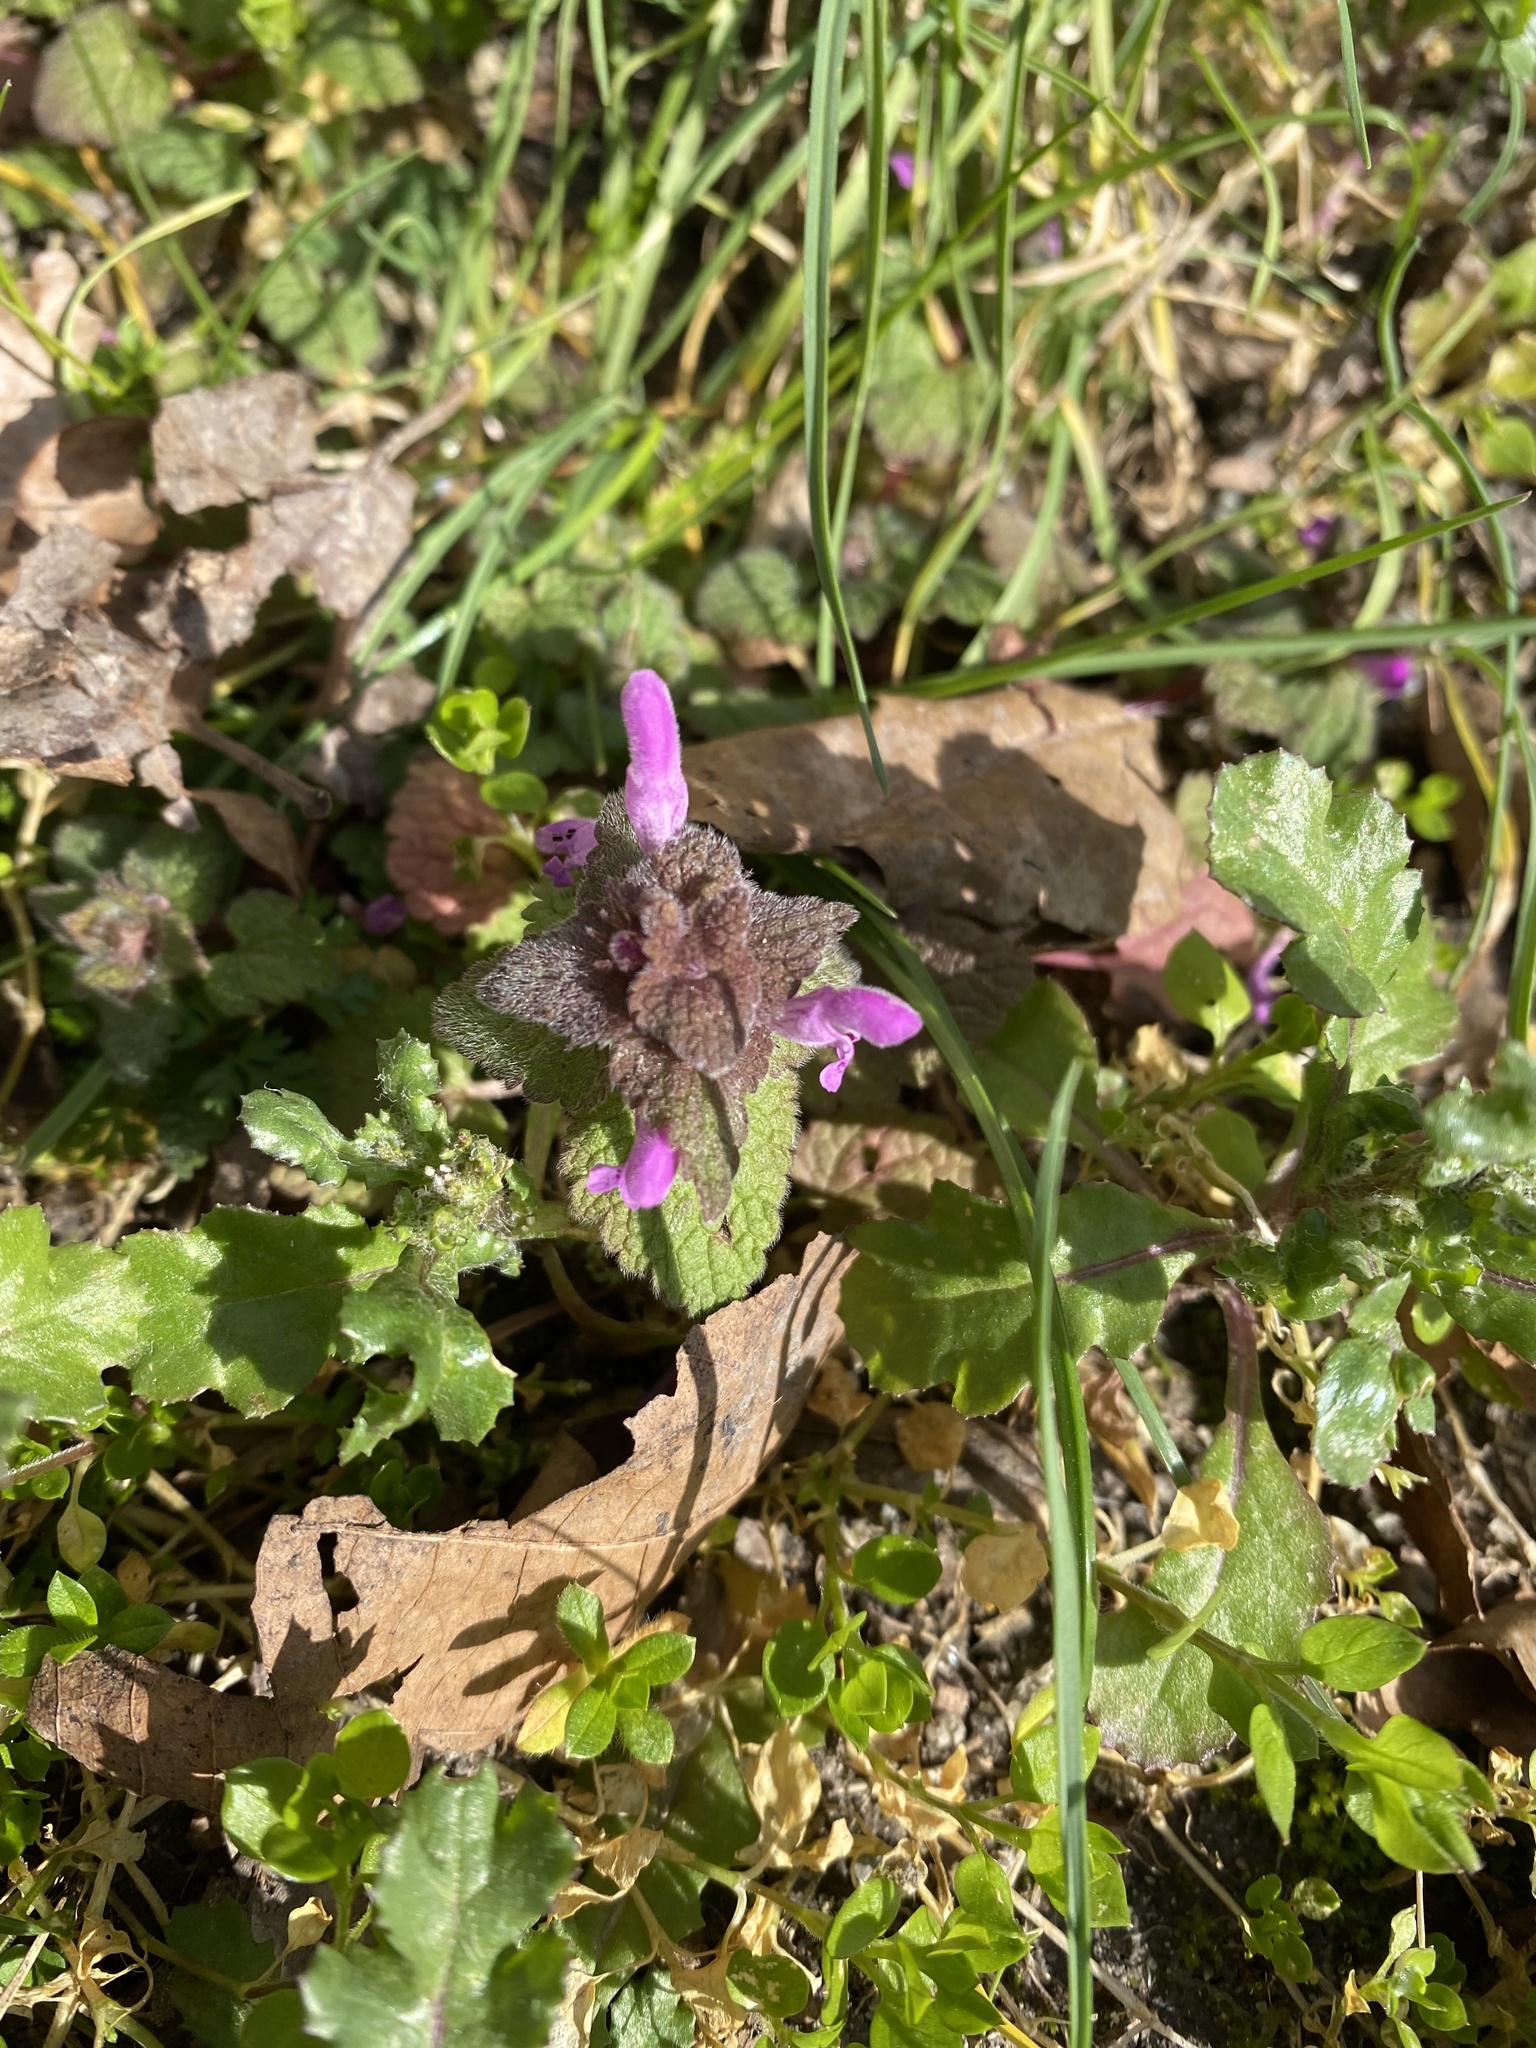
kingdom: Plantae
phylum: Tracheophyta
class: Magnoliopsida
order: Lamiales
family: Lamiaceae
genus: Lamium
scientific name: Lamium purpureum
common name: Red dead-nettle
